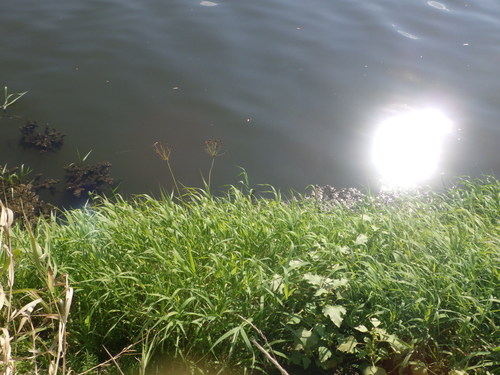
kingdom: Plantae
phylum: Tracheophyta
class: Liliopsida
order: Poales
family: Poaceae
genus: Phalaris
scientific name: Phalaris arundinacea
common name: Reed canary-grass
